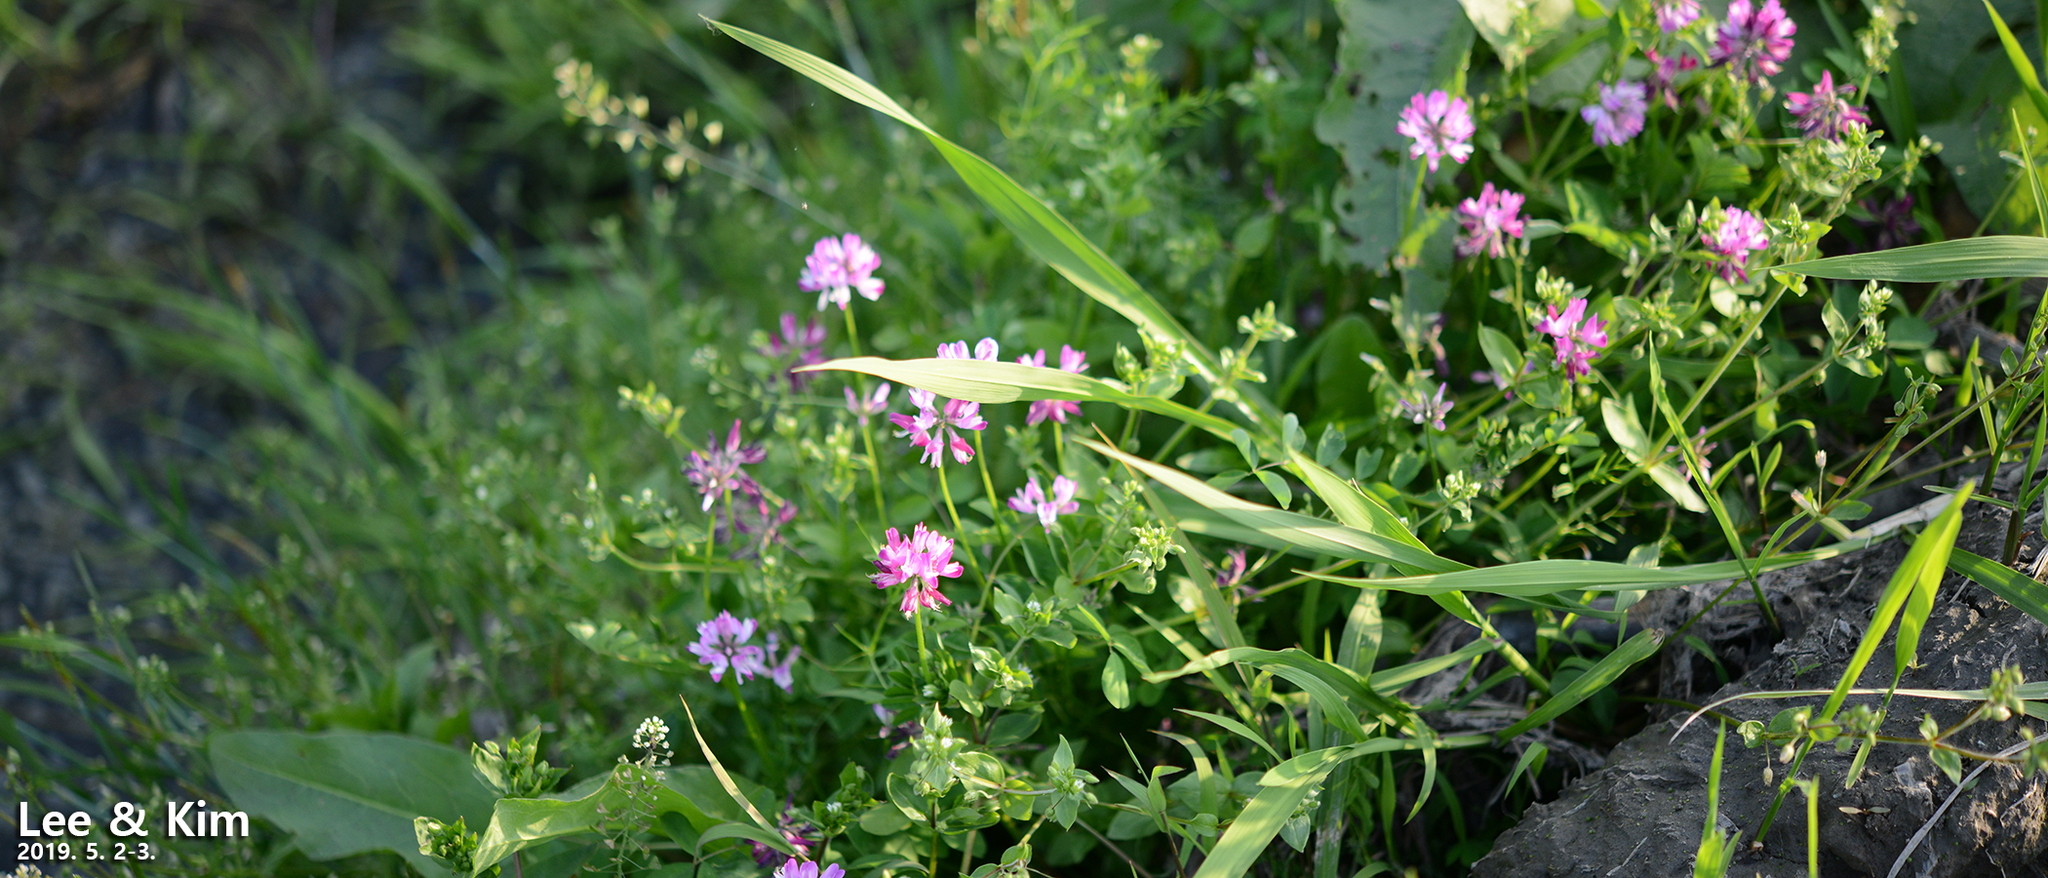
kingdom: Plantae
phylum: Tracheophyta
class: Magnoliopsida
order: Fabales
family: Fabaceae
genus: Astragalus
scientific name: Astragalus sinicus
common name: Chinese milk-vetch
